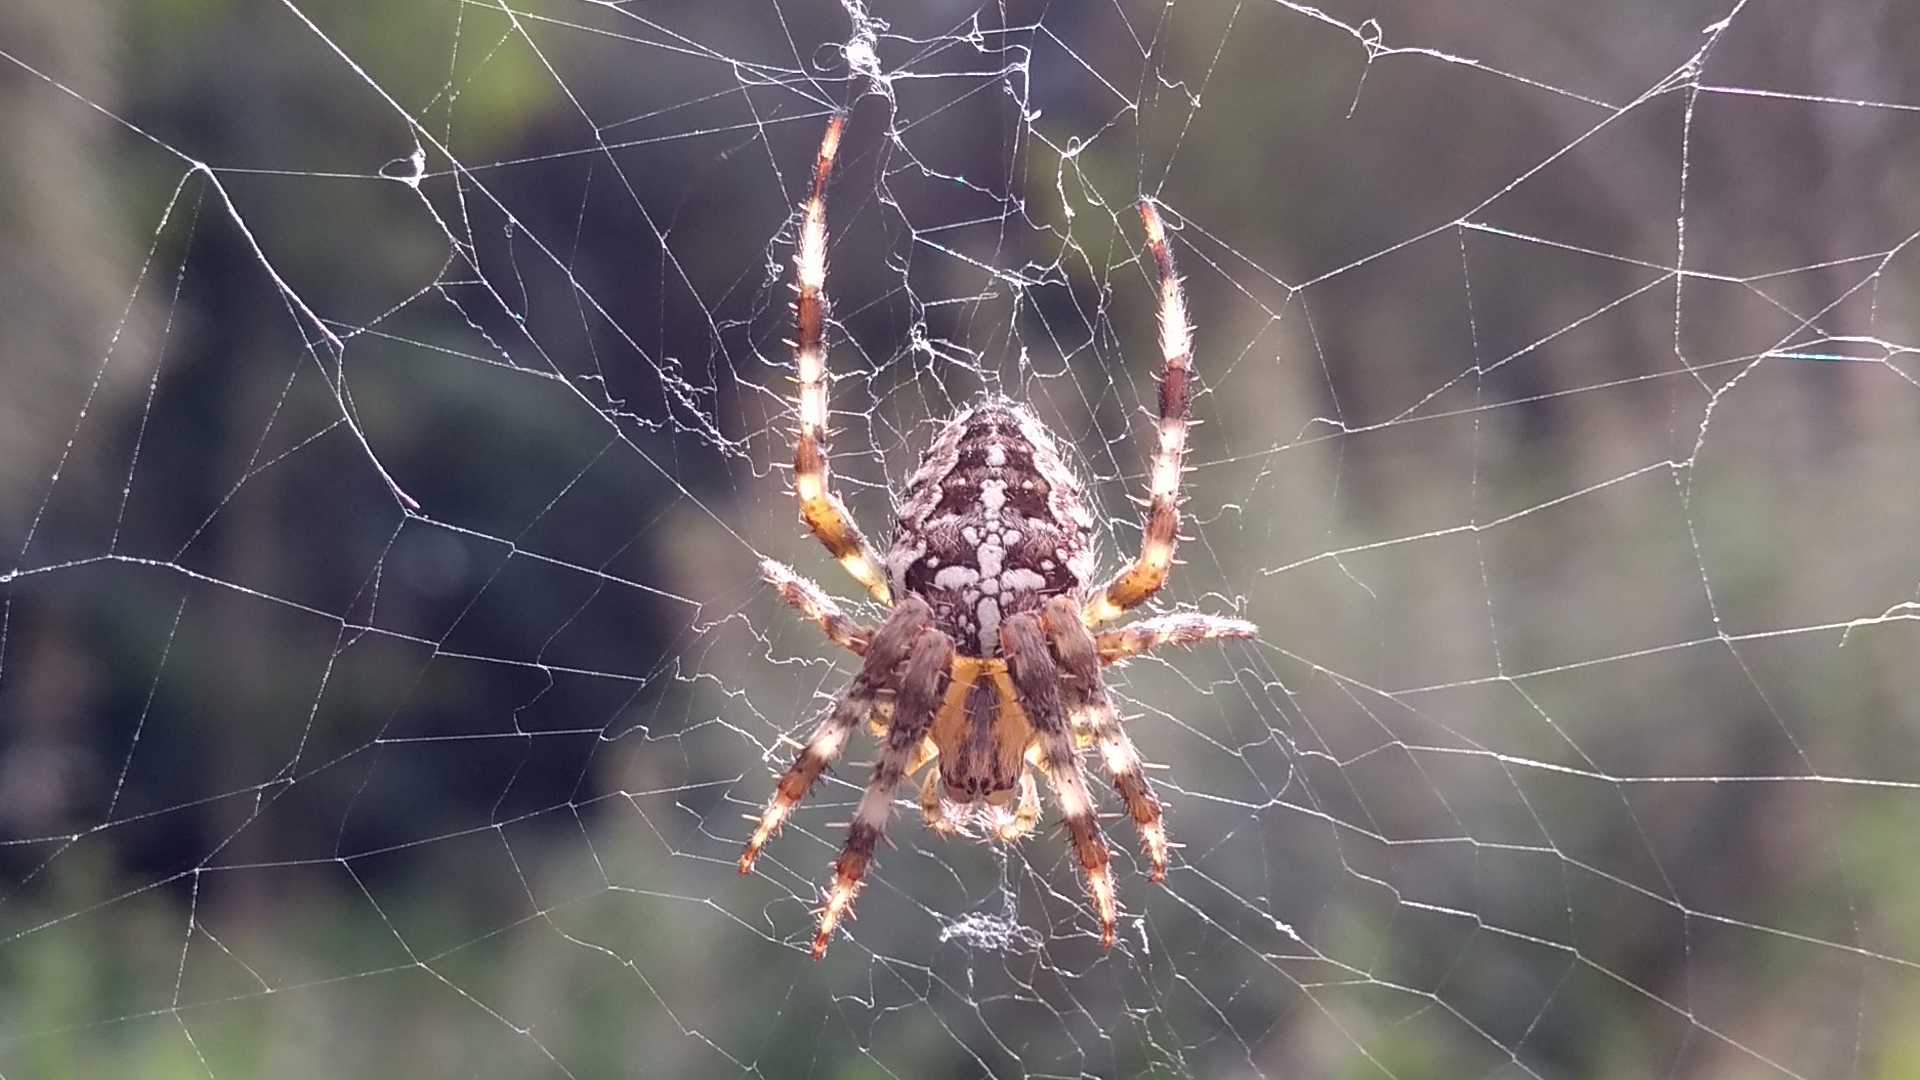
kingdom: Animalia
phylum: Arthropoda
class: Arachnida
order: Araneae
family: Araneidae
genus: Araneus
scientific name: Araneus diadematus
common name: Cross orbweaver
